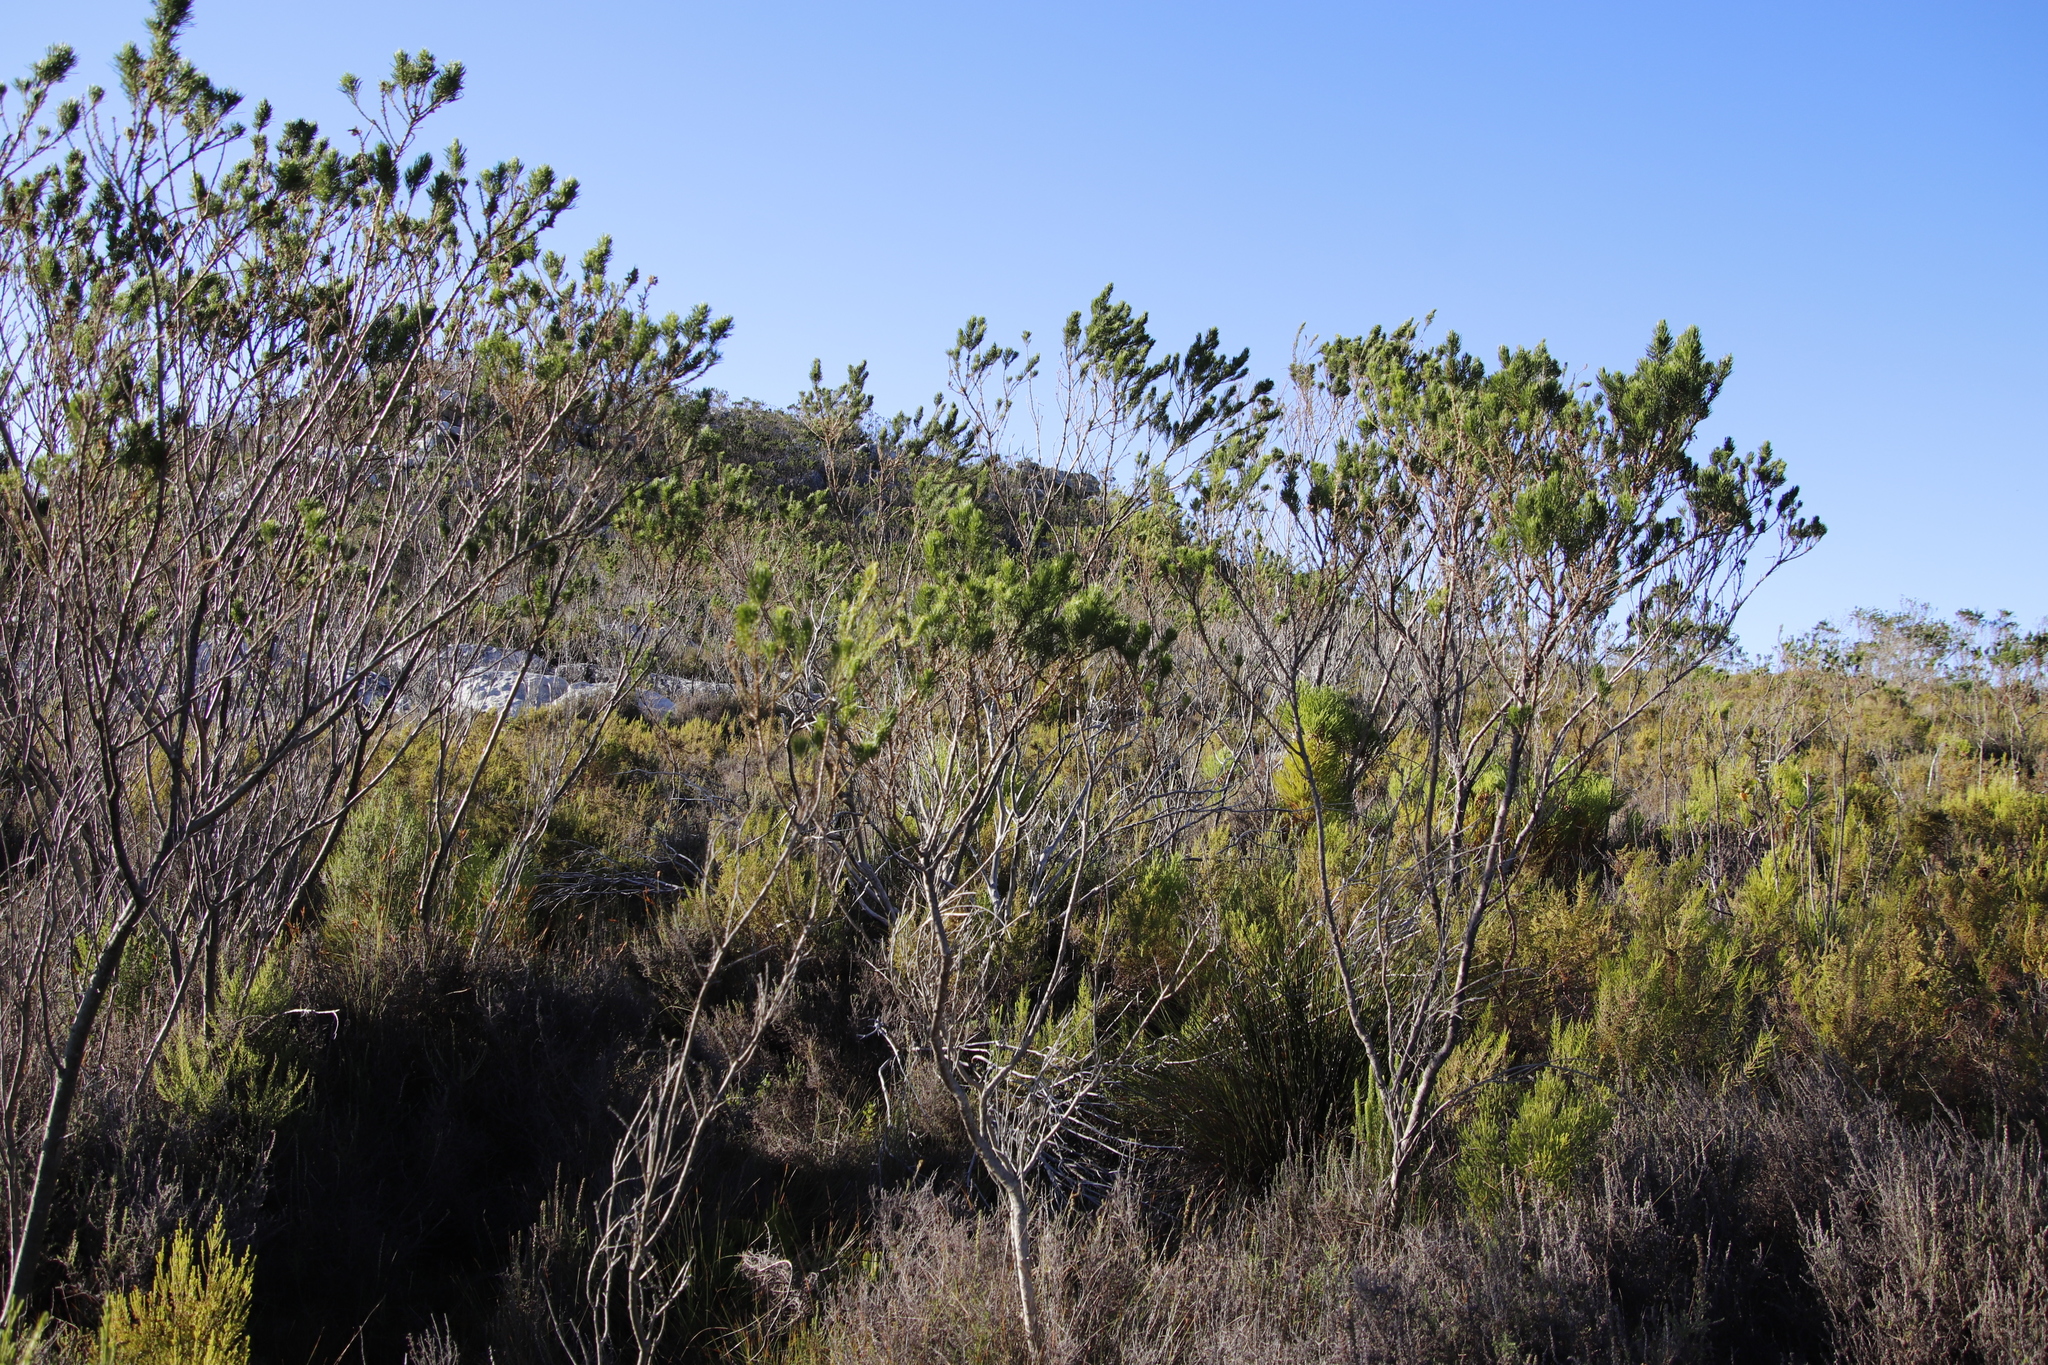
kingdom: Plantae
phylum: Tracheophyta
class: Magnoliopsida
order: Fabales
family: Fabaceae
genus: Psoralea
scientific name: Psoralea pinnata
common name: African scurfpea
